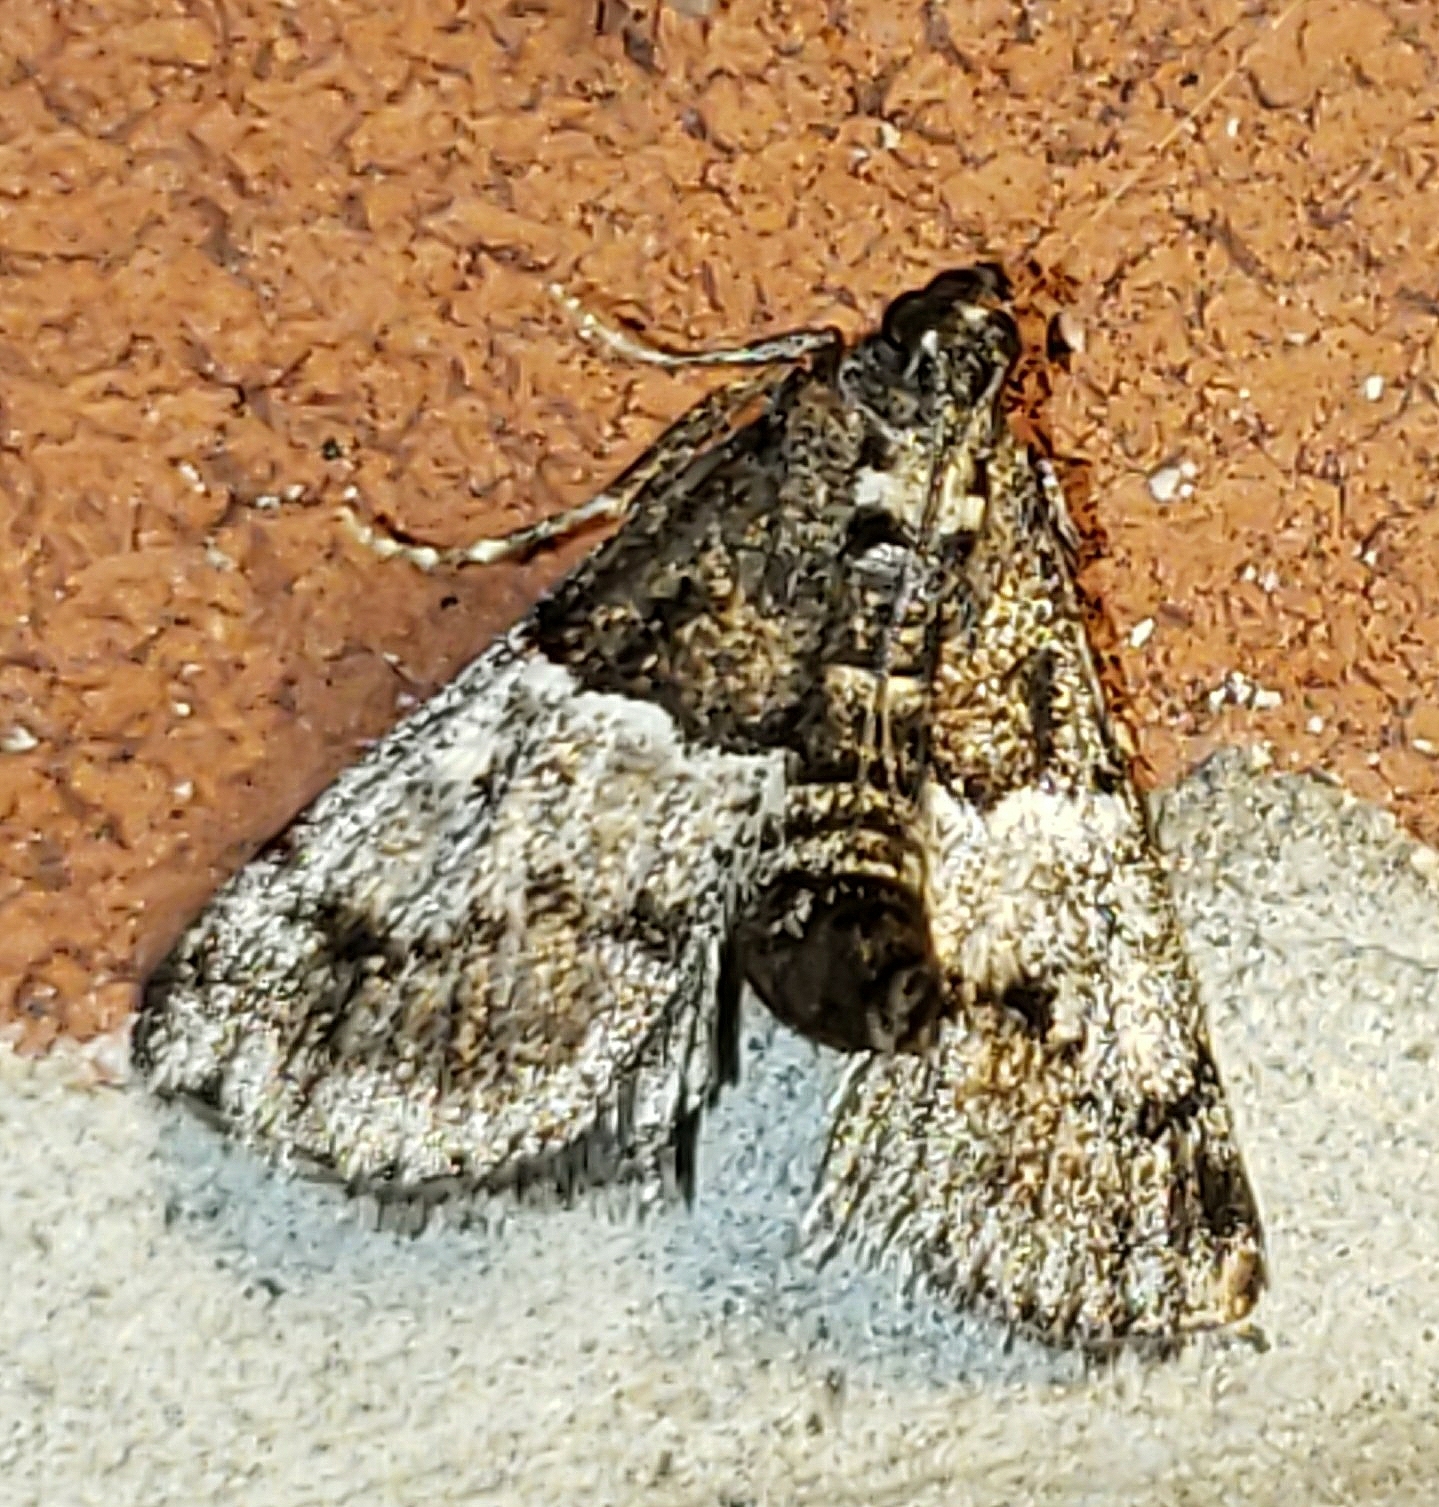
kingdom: Animalia
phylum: Arthropoda
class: Insecta
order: Lepidoptera
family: Pyralidae
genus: Macalla
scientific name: Macalla zelleri
